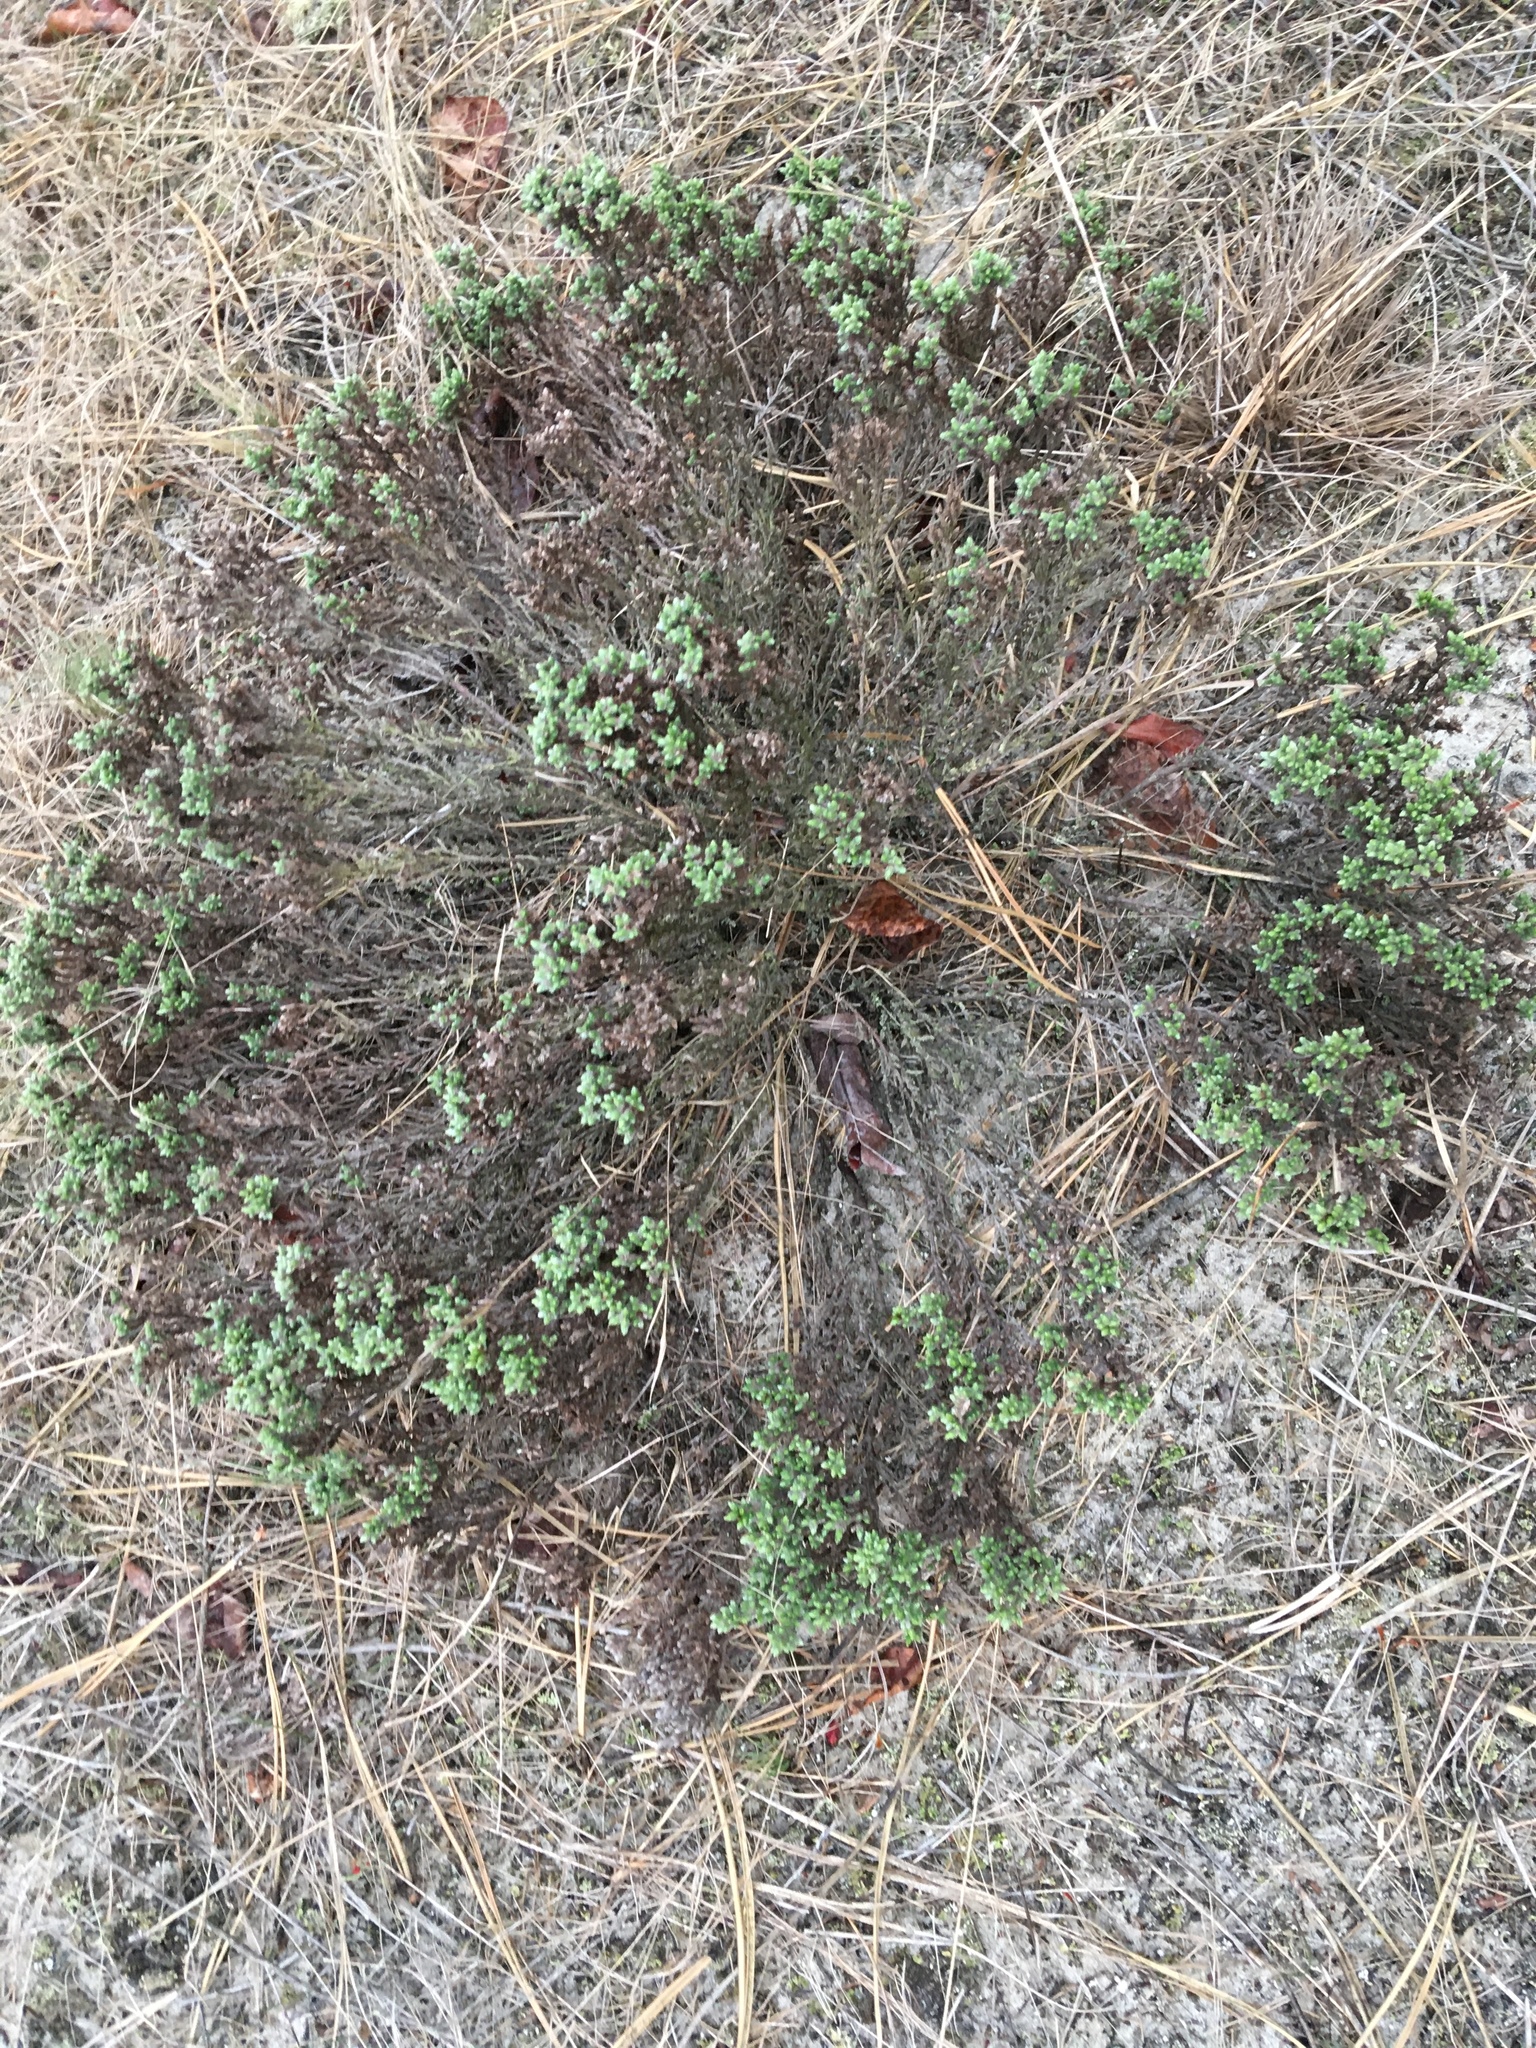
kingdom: Plantae
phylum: Tracheophyta
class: Magnoliopsida
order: Malvales
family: Cistaceae
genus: Hudsonia
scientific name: Hudsonia tomentosa
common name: Beach-heath
